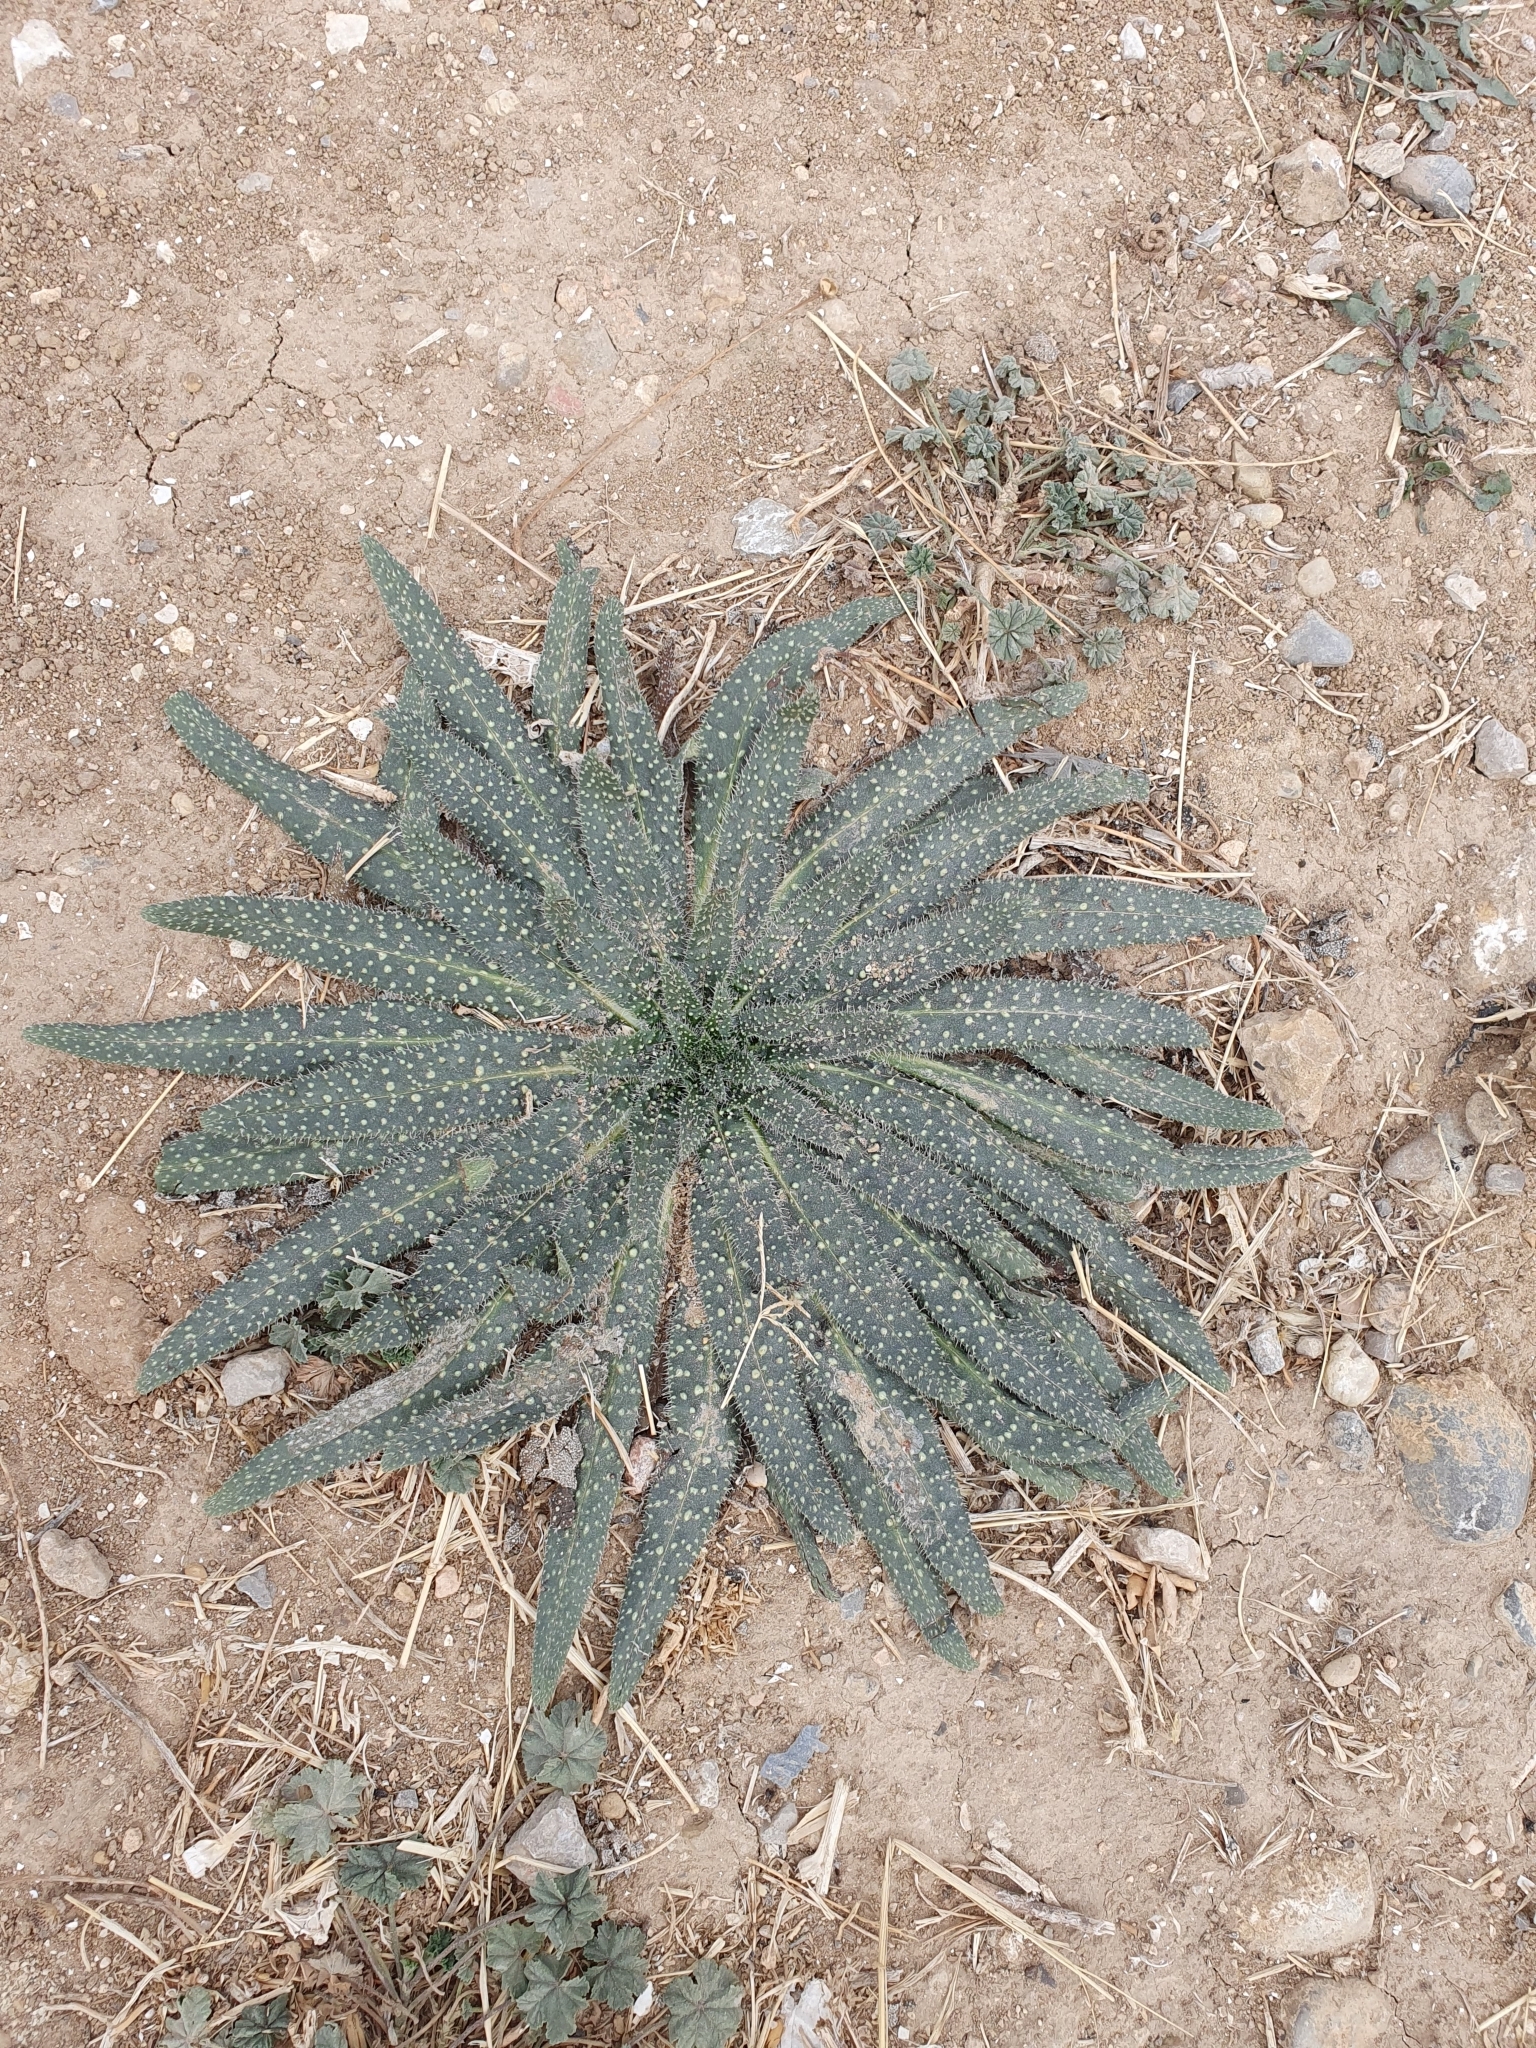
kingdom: Plantae
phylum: Tracheophyta
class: Magnoliopsida
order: Boraginales
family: Boraginaceae
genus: Echium
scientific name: Echium asperrimum
